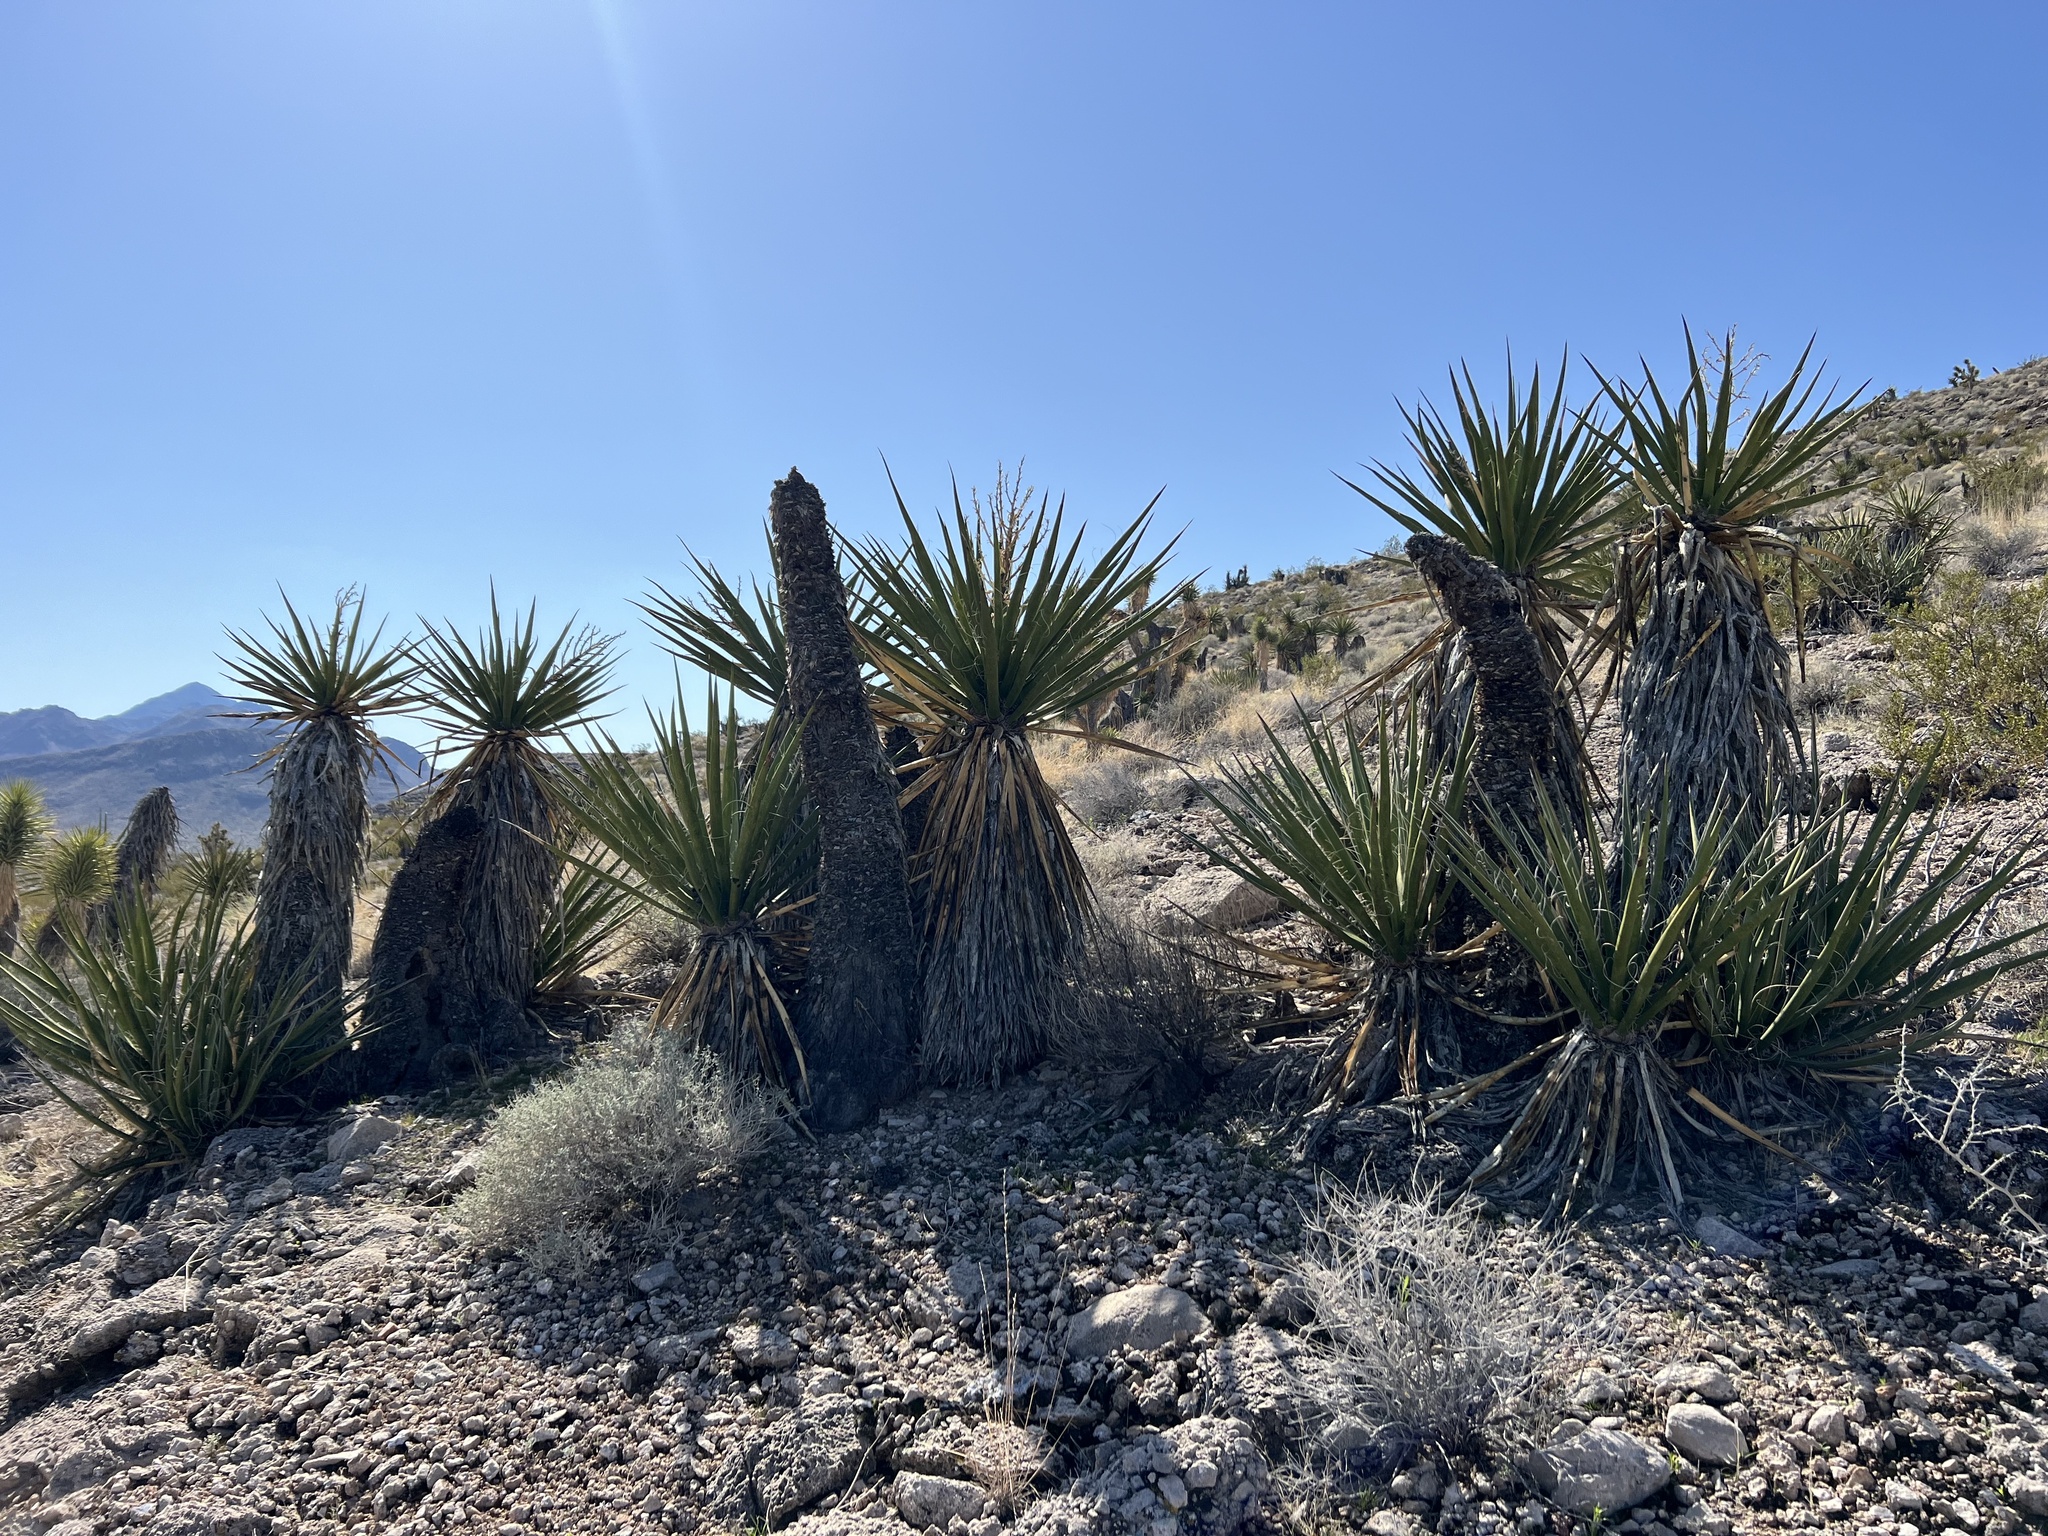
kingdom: Plantae
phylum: Tracheophyta
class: Liliopsida
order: Asparagales
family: Asparagaceae
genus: Yucca
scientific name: Yucca schidigera
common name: Mojave yucca
